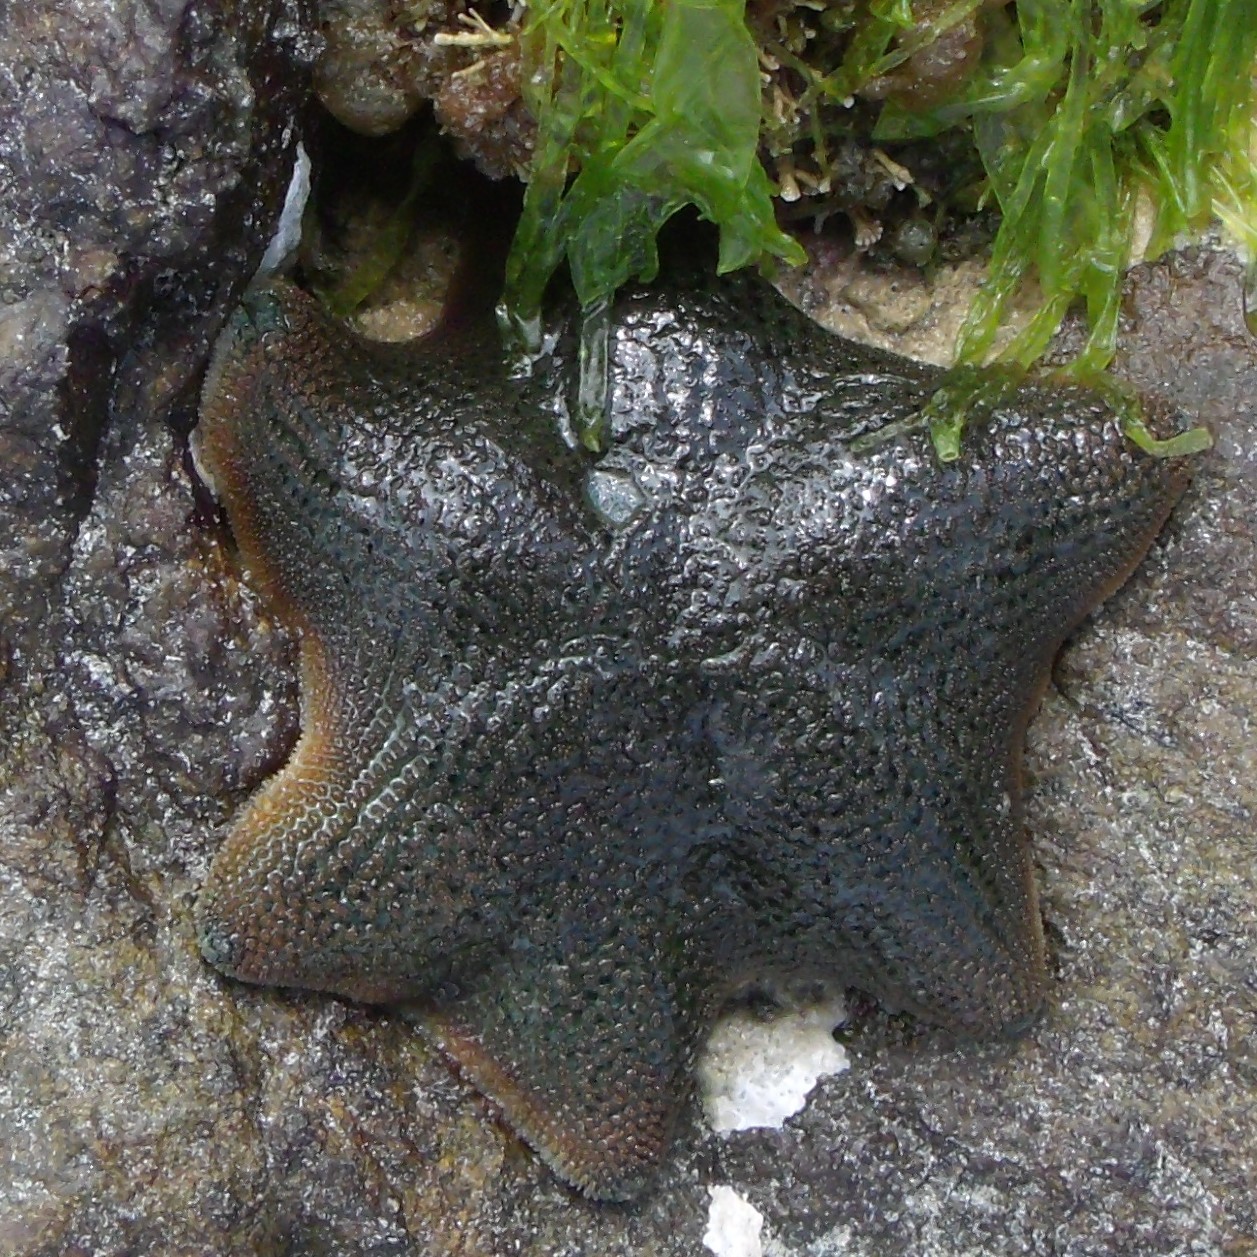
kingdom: Animalia
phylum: Echinodermata
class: Asteroidea
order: Valvatida
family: Asterinidae
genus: Patiriella
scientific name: Patiriella regularis
